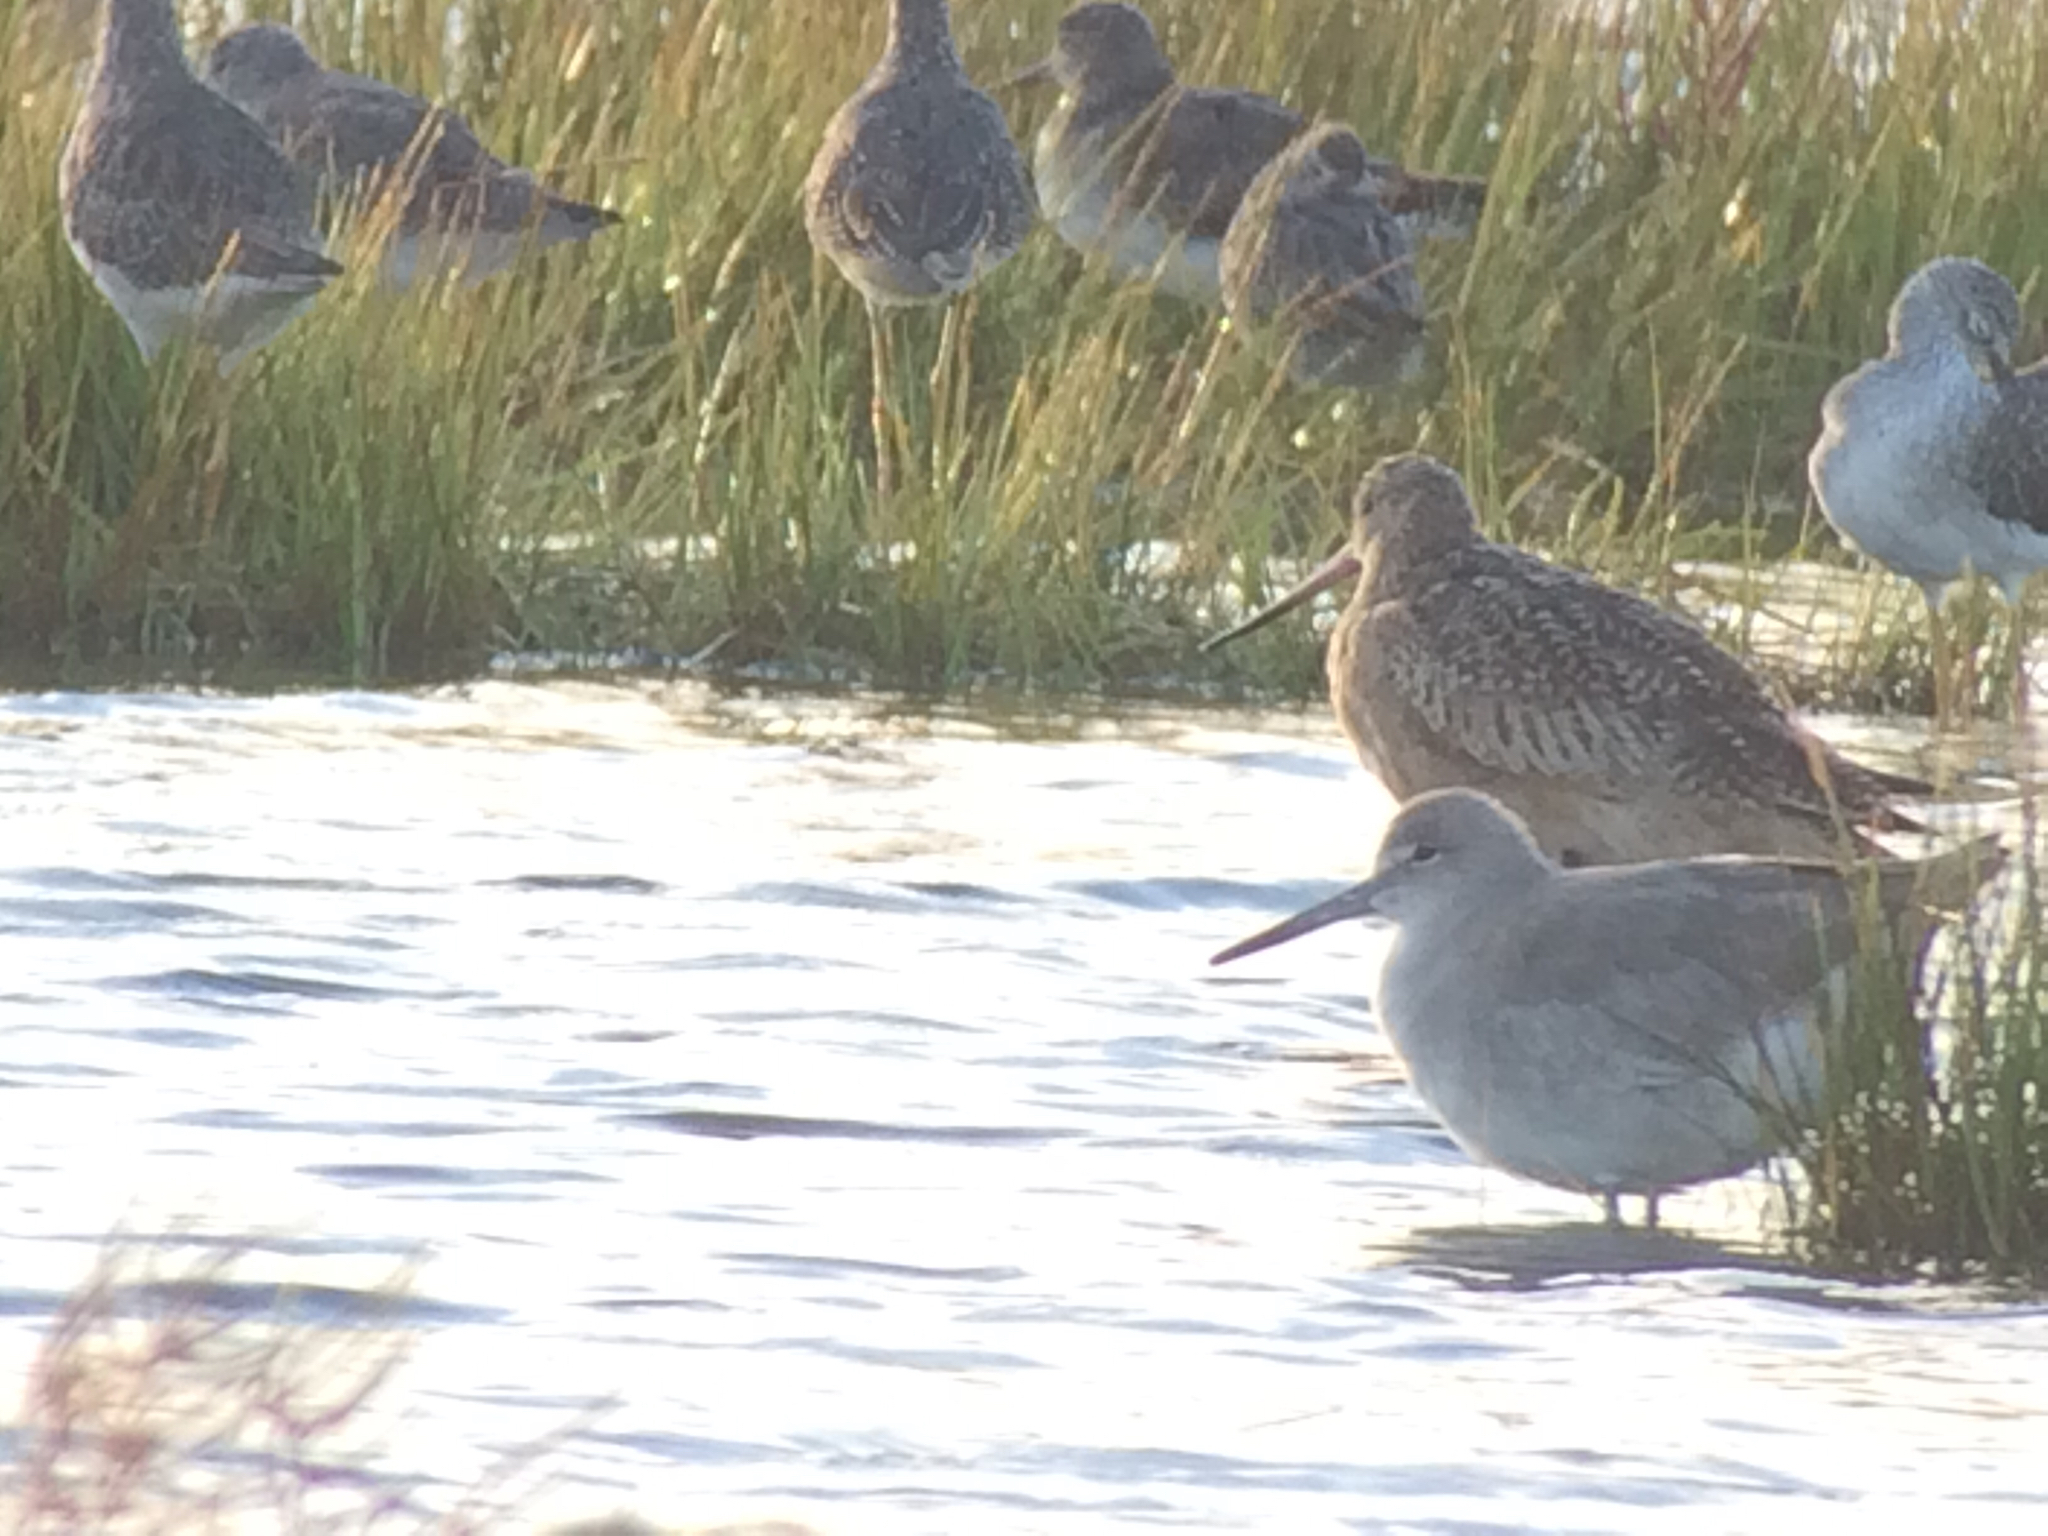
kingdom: Animalia
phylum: Chordata
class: Aves
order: Charadriiformes
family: Scolopacidae
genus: Tringa
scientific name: Tringa semipalmata
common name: Willet
